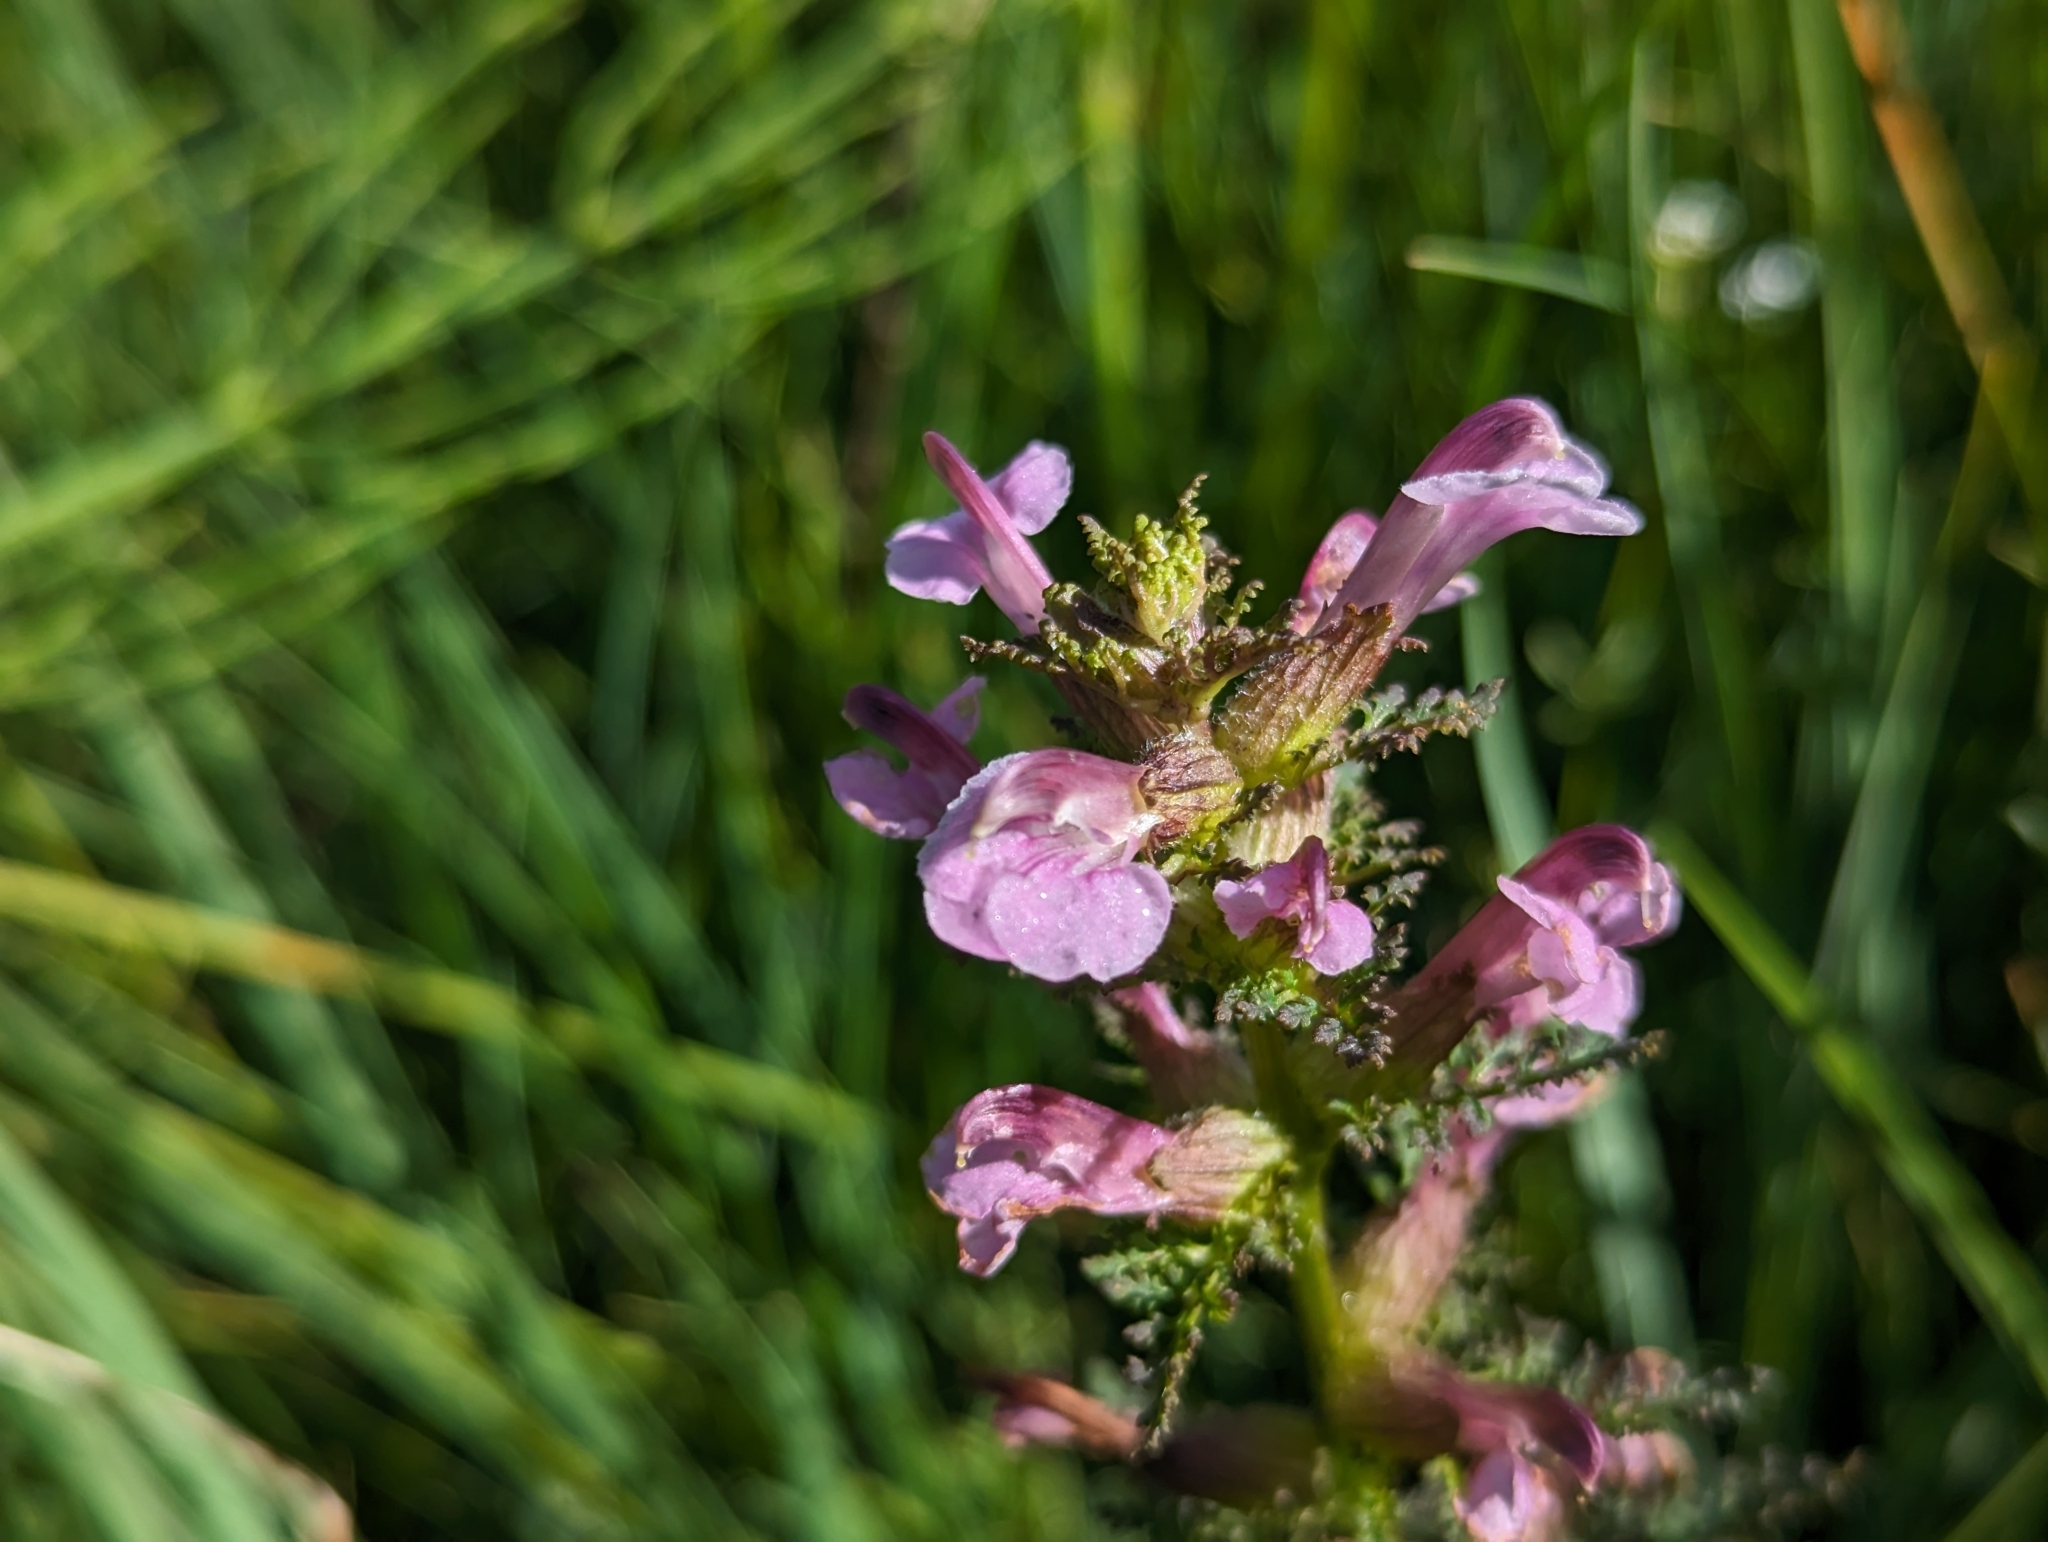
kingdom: Plantae
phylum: Tracheophyta
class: Magnoliopsida
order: Lamiales
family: Orobanchaceae
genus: Pedicularis
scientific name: Pedicularis palustris
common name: Marsh lousewort
